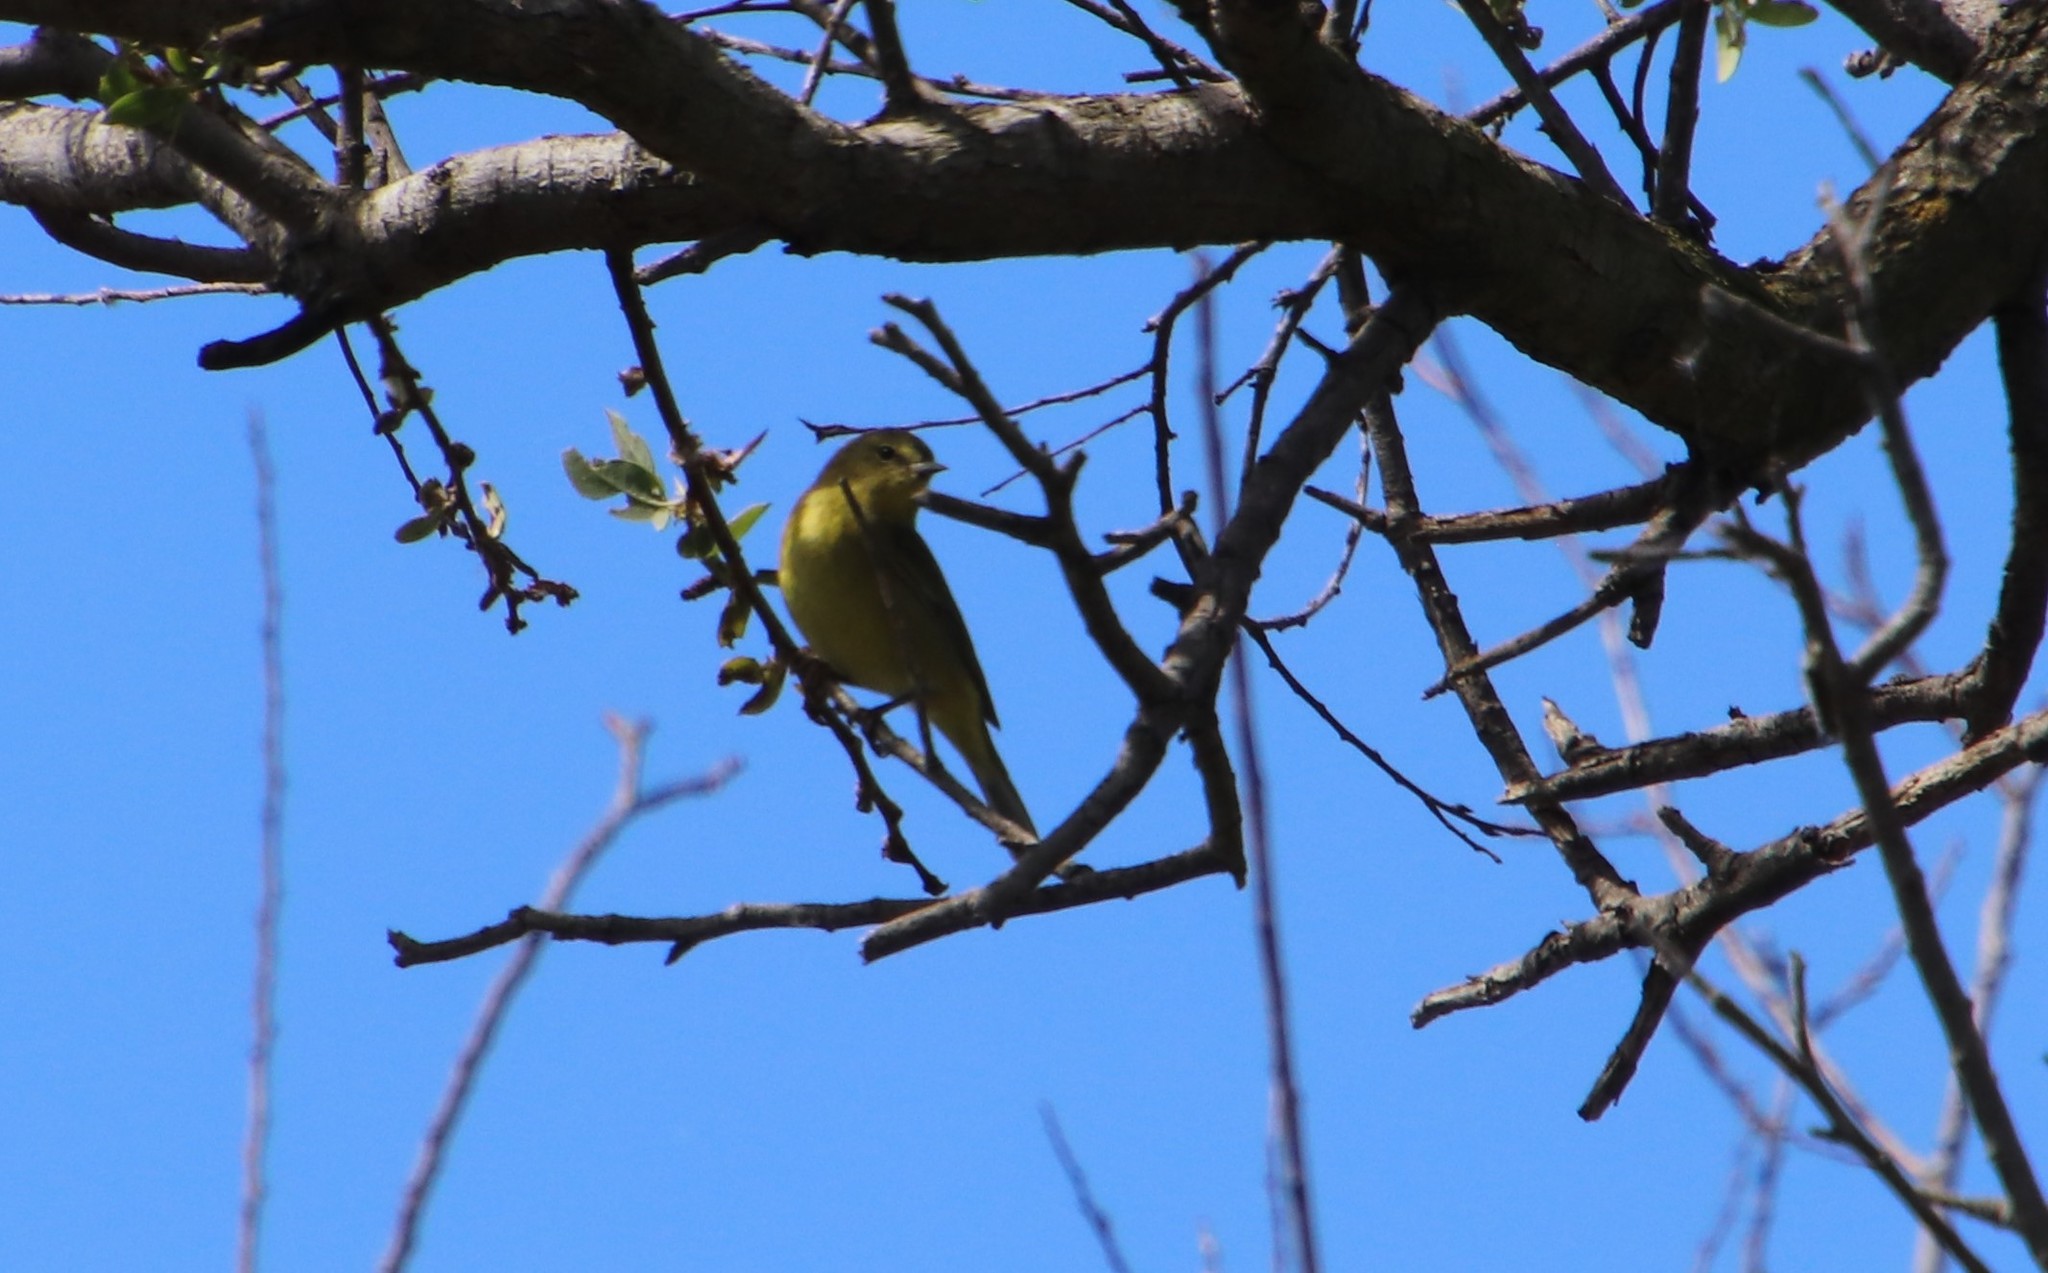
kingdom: Animalia
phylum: Chordata
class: Aves
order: Passeriformes
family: Parulidae
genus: Leiothlypis
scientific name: Leiothlypis celata
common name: Orange-crowned warbler
